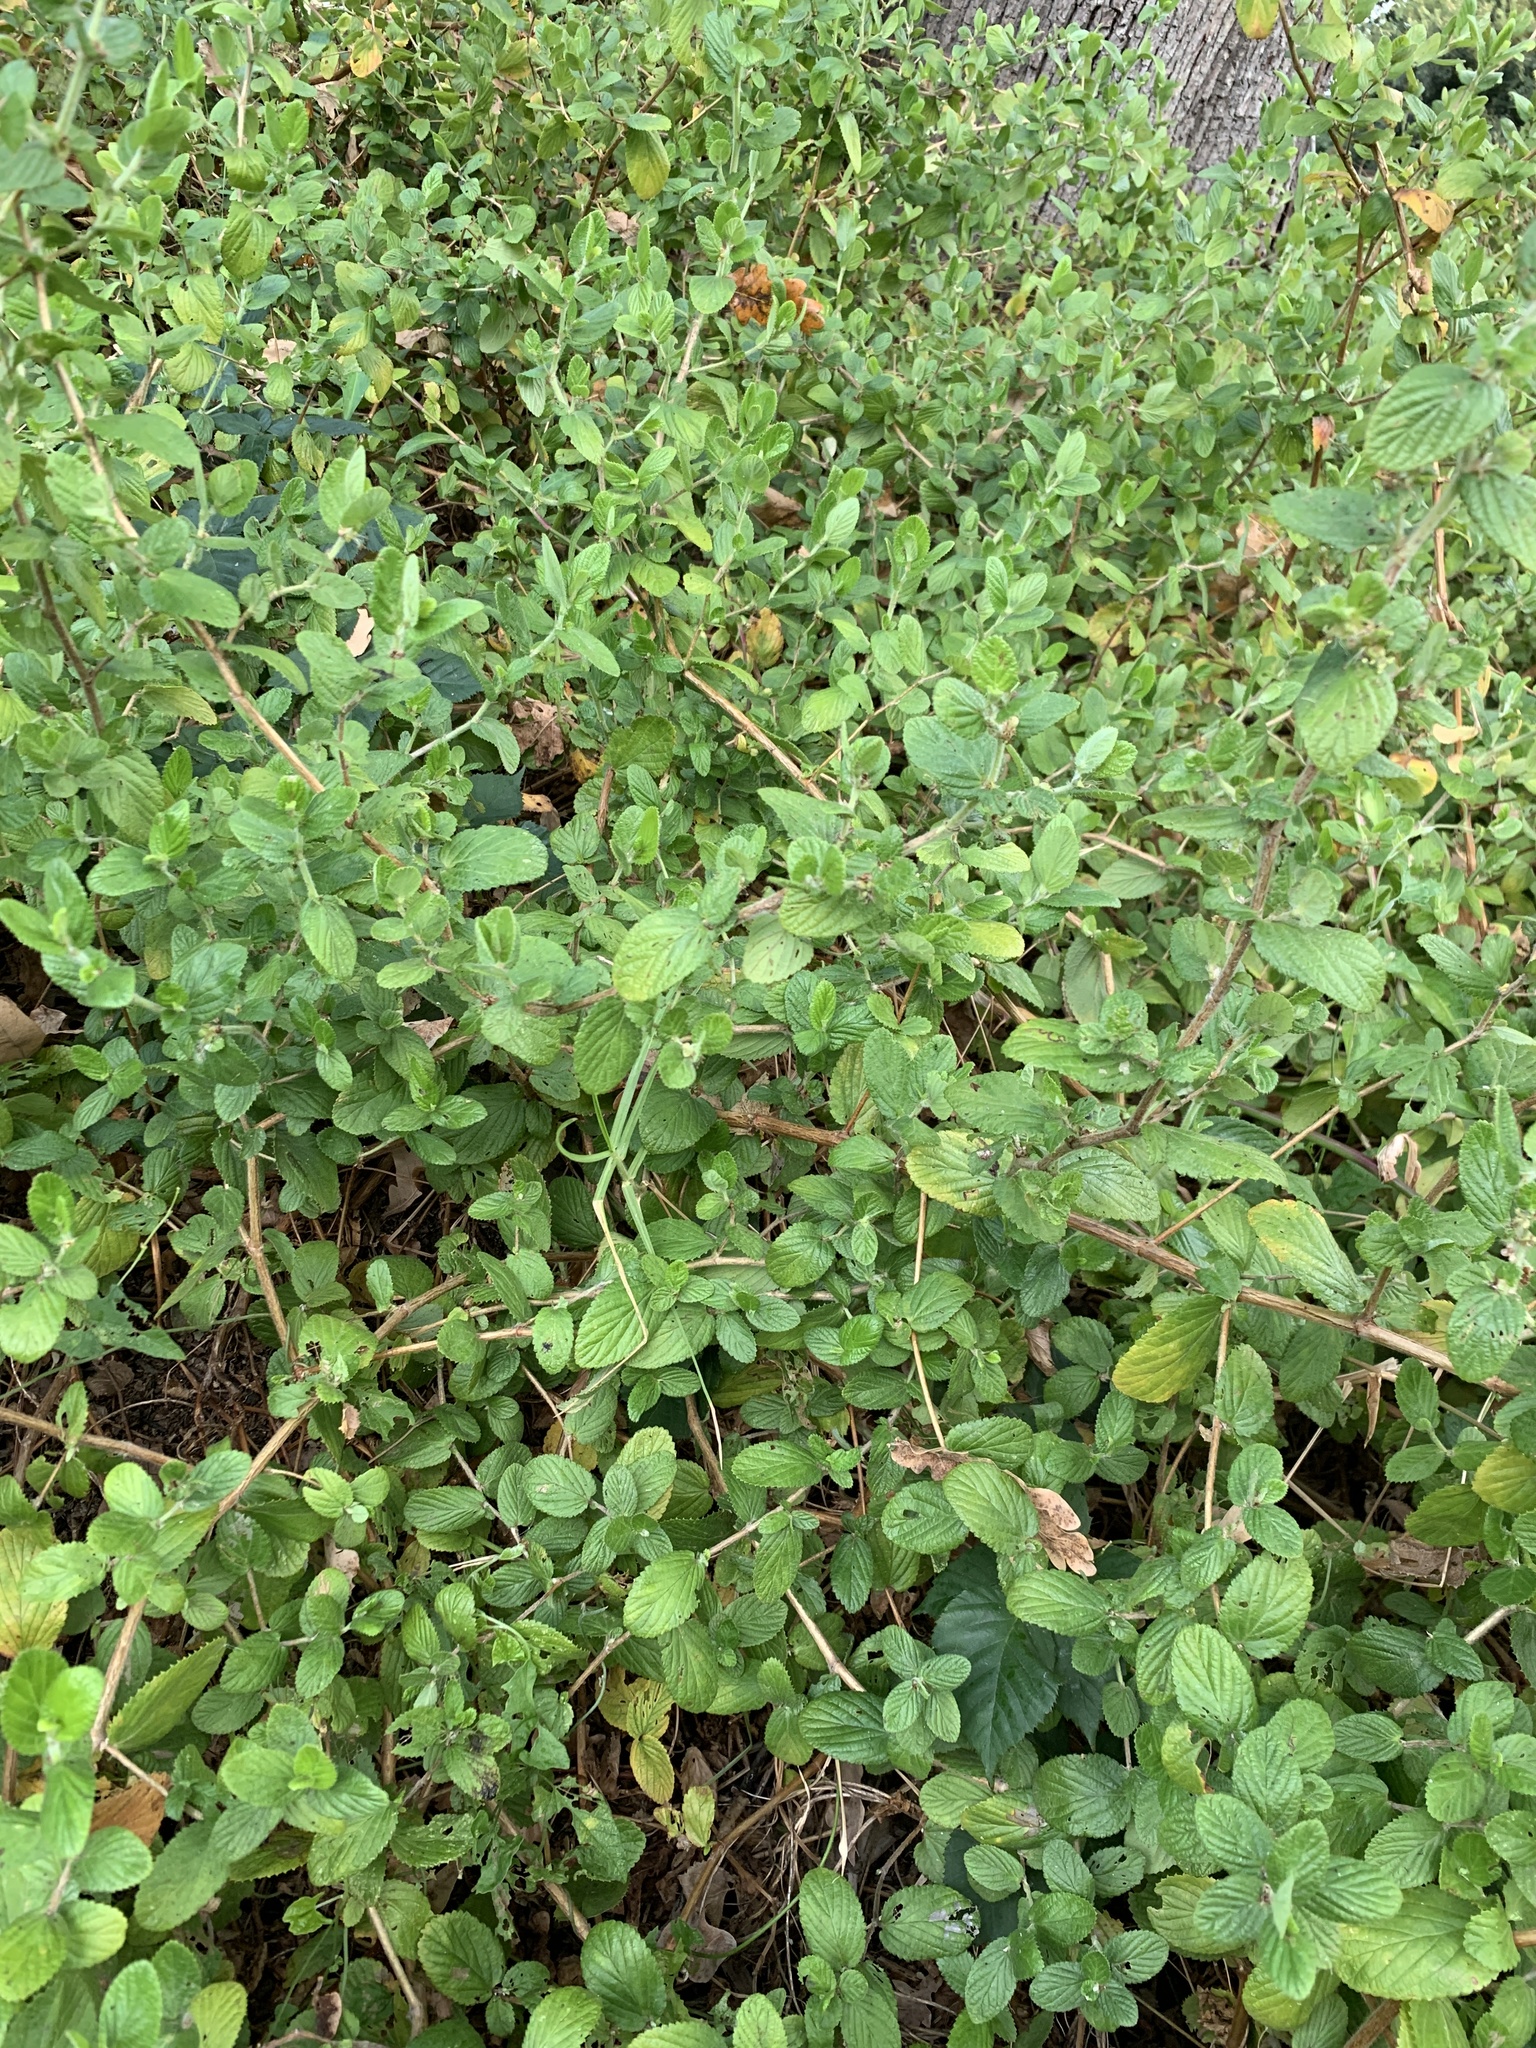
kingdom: Plantae
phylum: Tracheophyta
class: Magnoliopsida
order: Rosales
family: Rosaceae
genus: Cliffortia
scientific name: Cliffortia odorata
